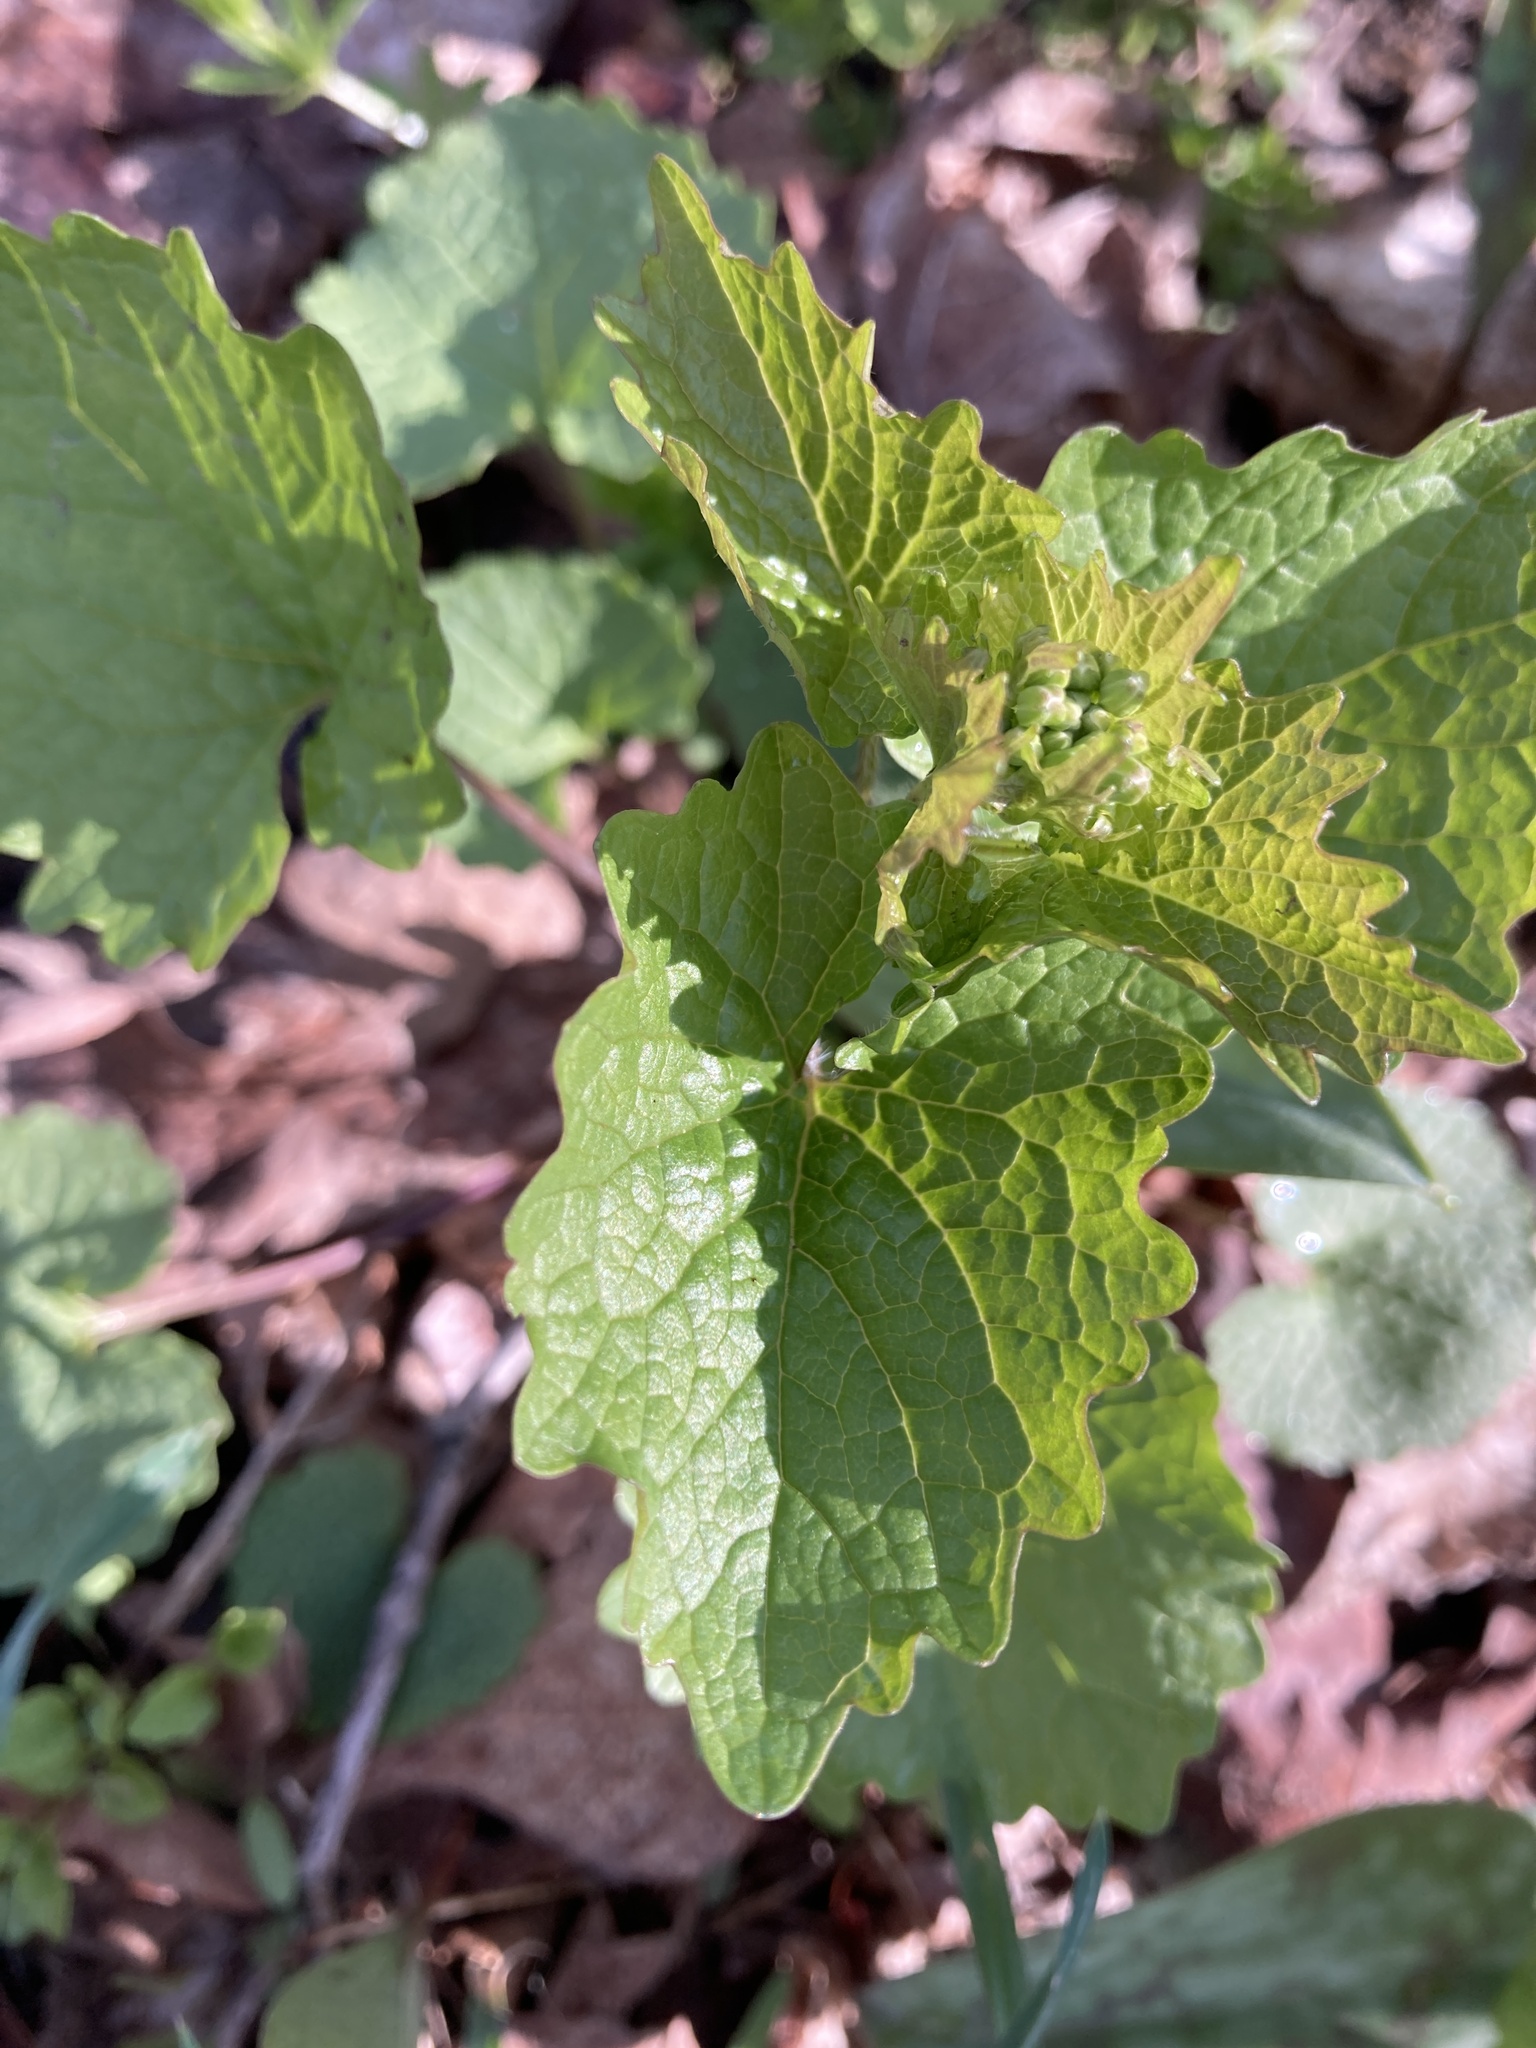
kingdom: Plantae
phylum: Tracheophyta
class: Magnoliopsida
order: Brassicales
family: Brassicaceae
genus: Alliaria
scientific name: Alliaria petiolata
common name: Garlic mustard
